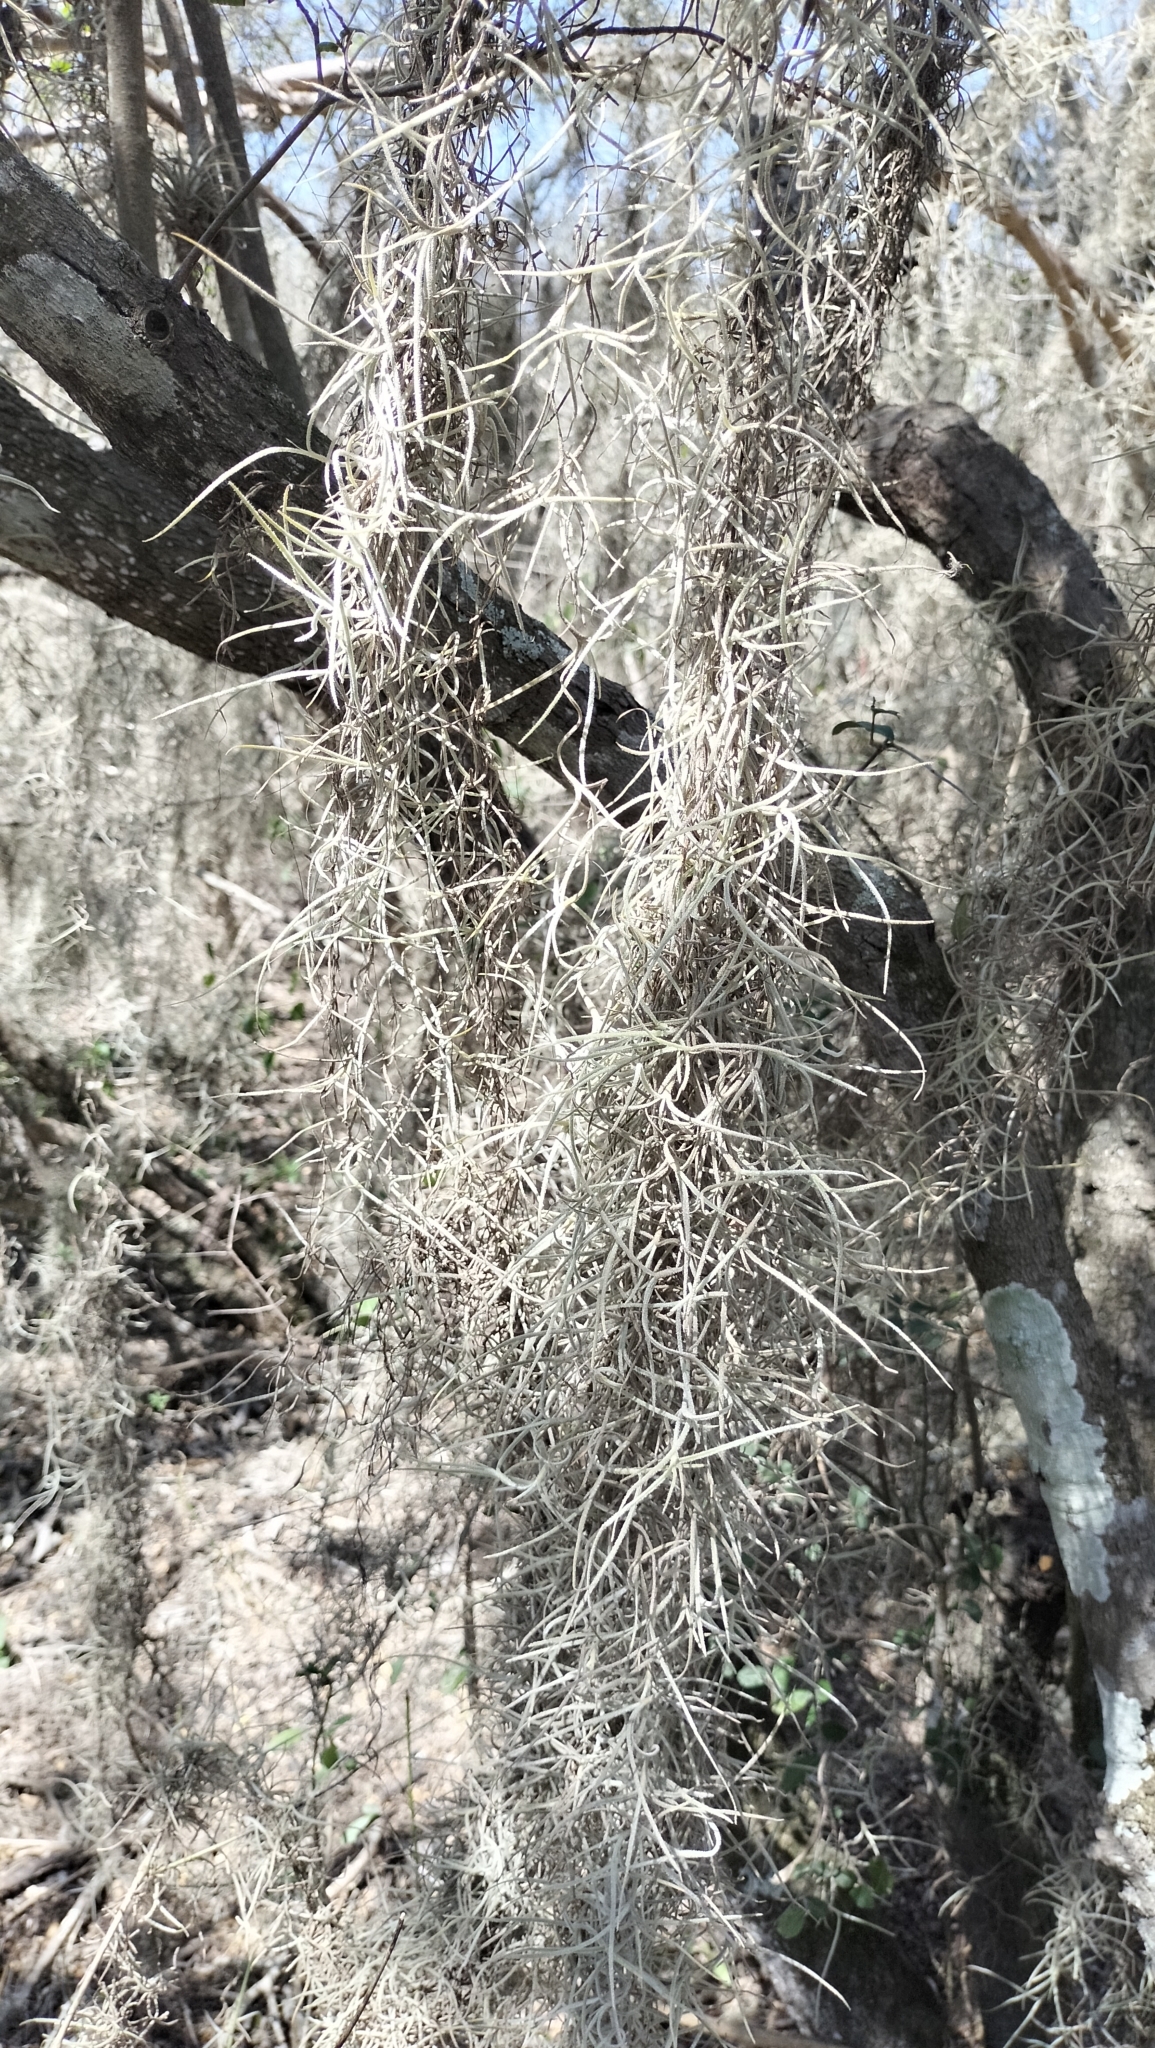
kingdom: Plantae
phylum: Tracheophyta
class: Liliopsida
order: Poales
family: Bromeliaceae
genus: Tillandsia
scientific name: Tillandsia usneoides
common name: Spanish moss
